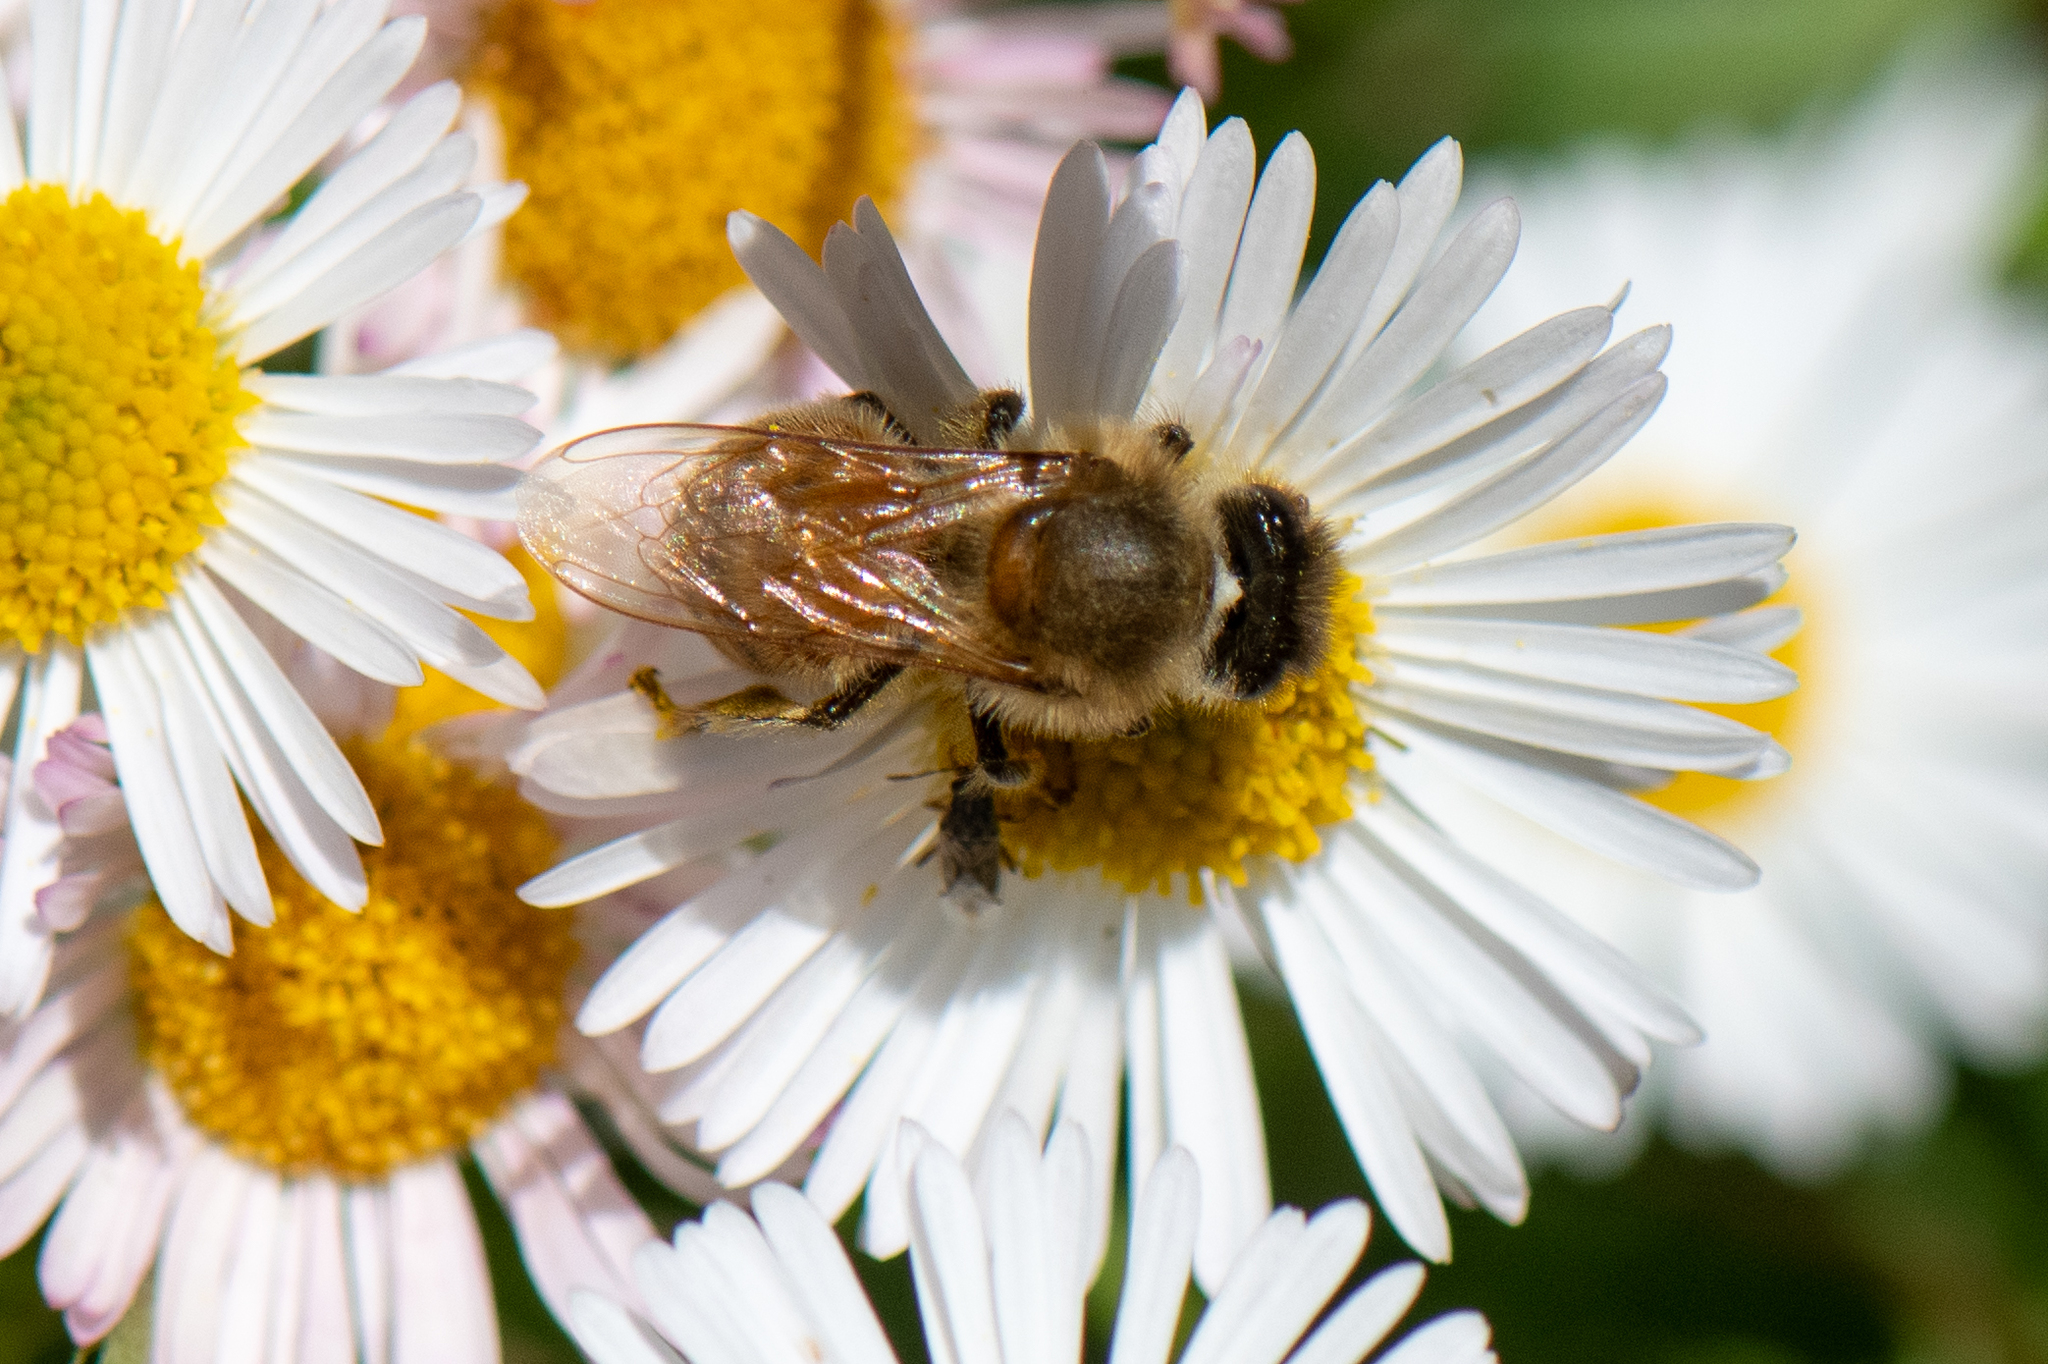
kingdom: Animalia
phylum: Arthropoda
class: Insecta
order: Hymenoptera
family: Apidae
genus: Apis
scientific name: Apis mellifera
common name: Honey bee
